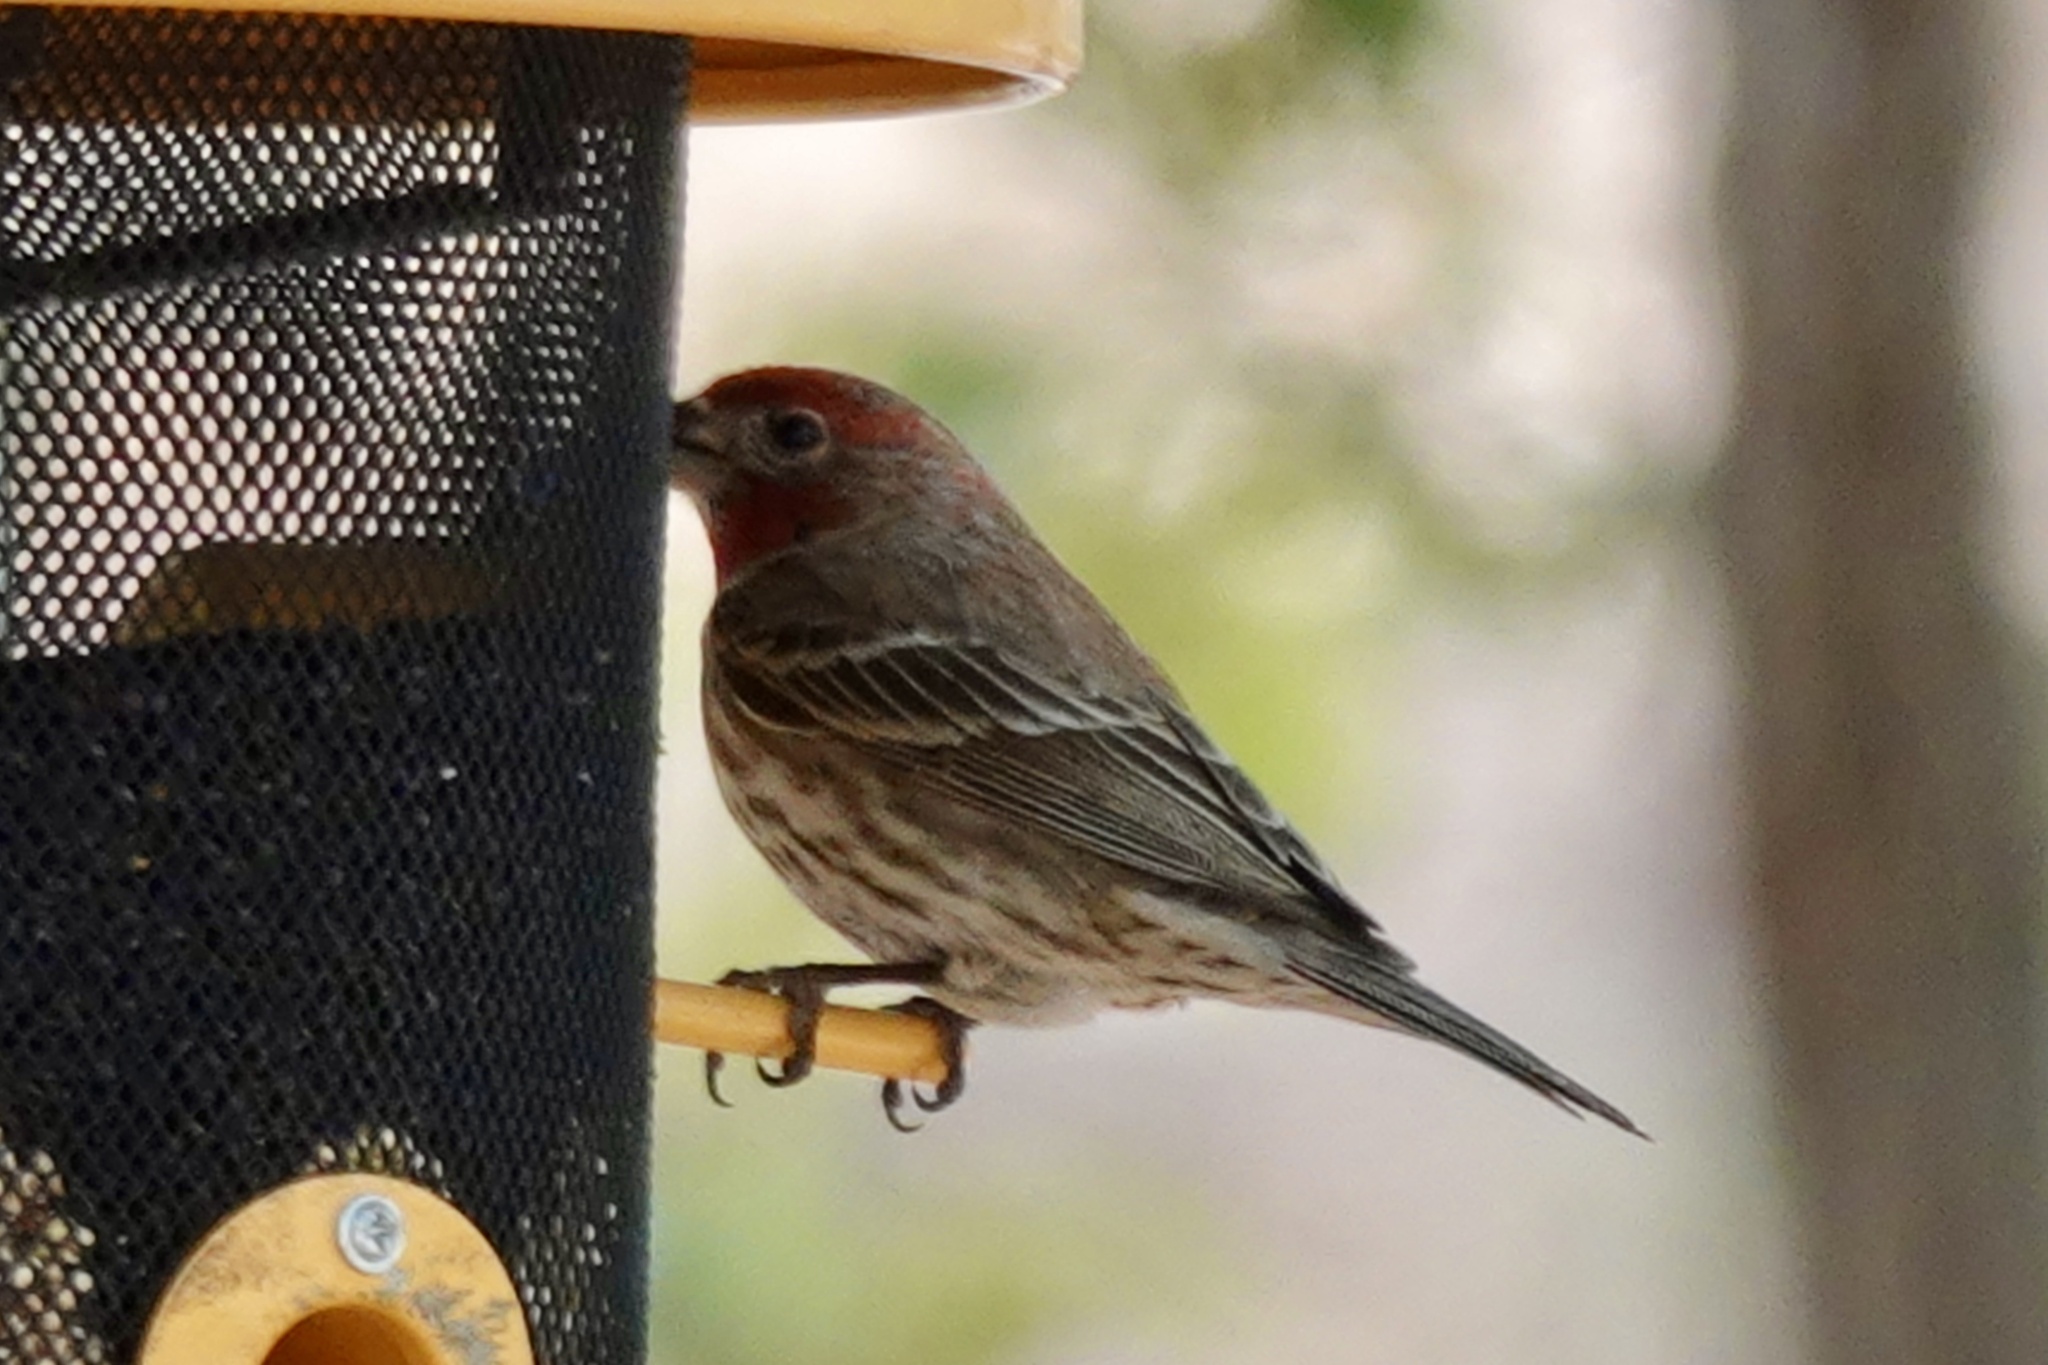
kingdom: Animalia
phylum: Chordata
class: Aves
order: Passeriformes
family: Fringillidae
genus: Haemorhous
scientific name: Haemorhous mexicanus
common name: House finch
